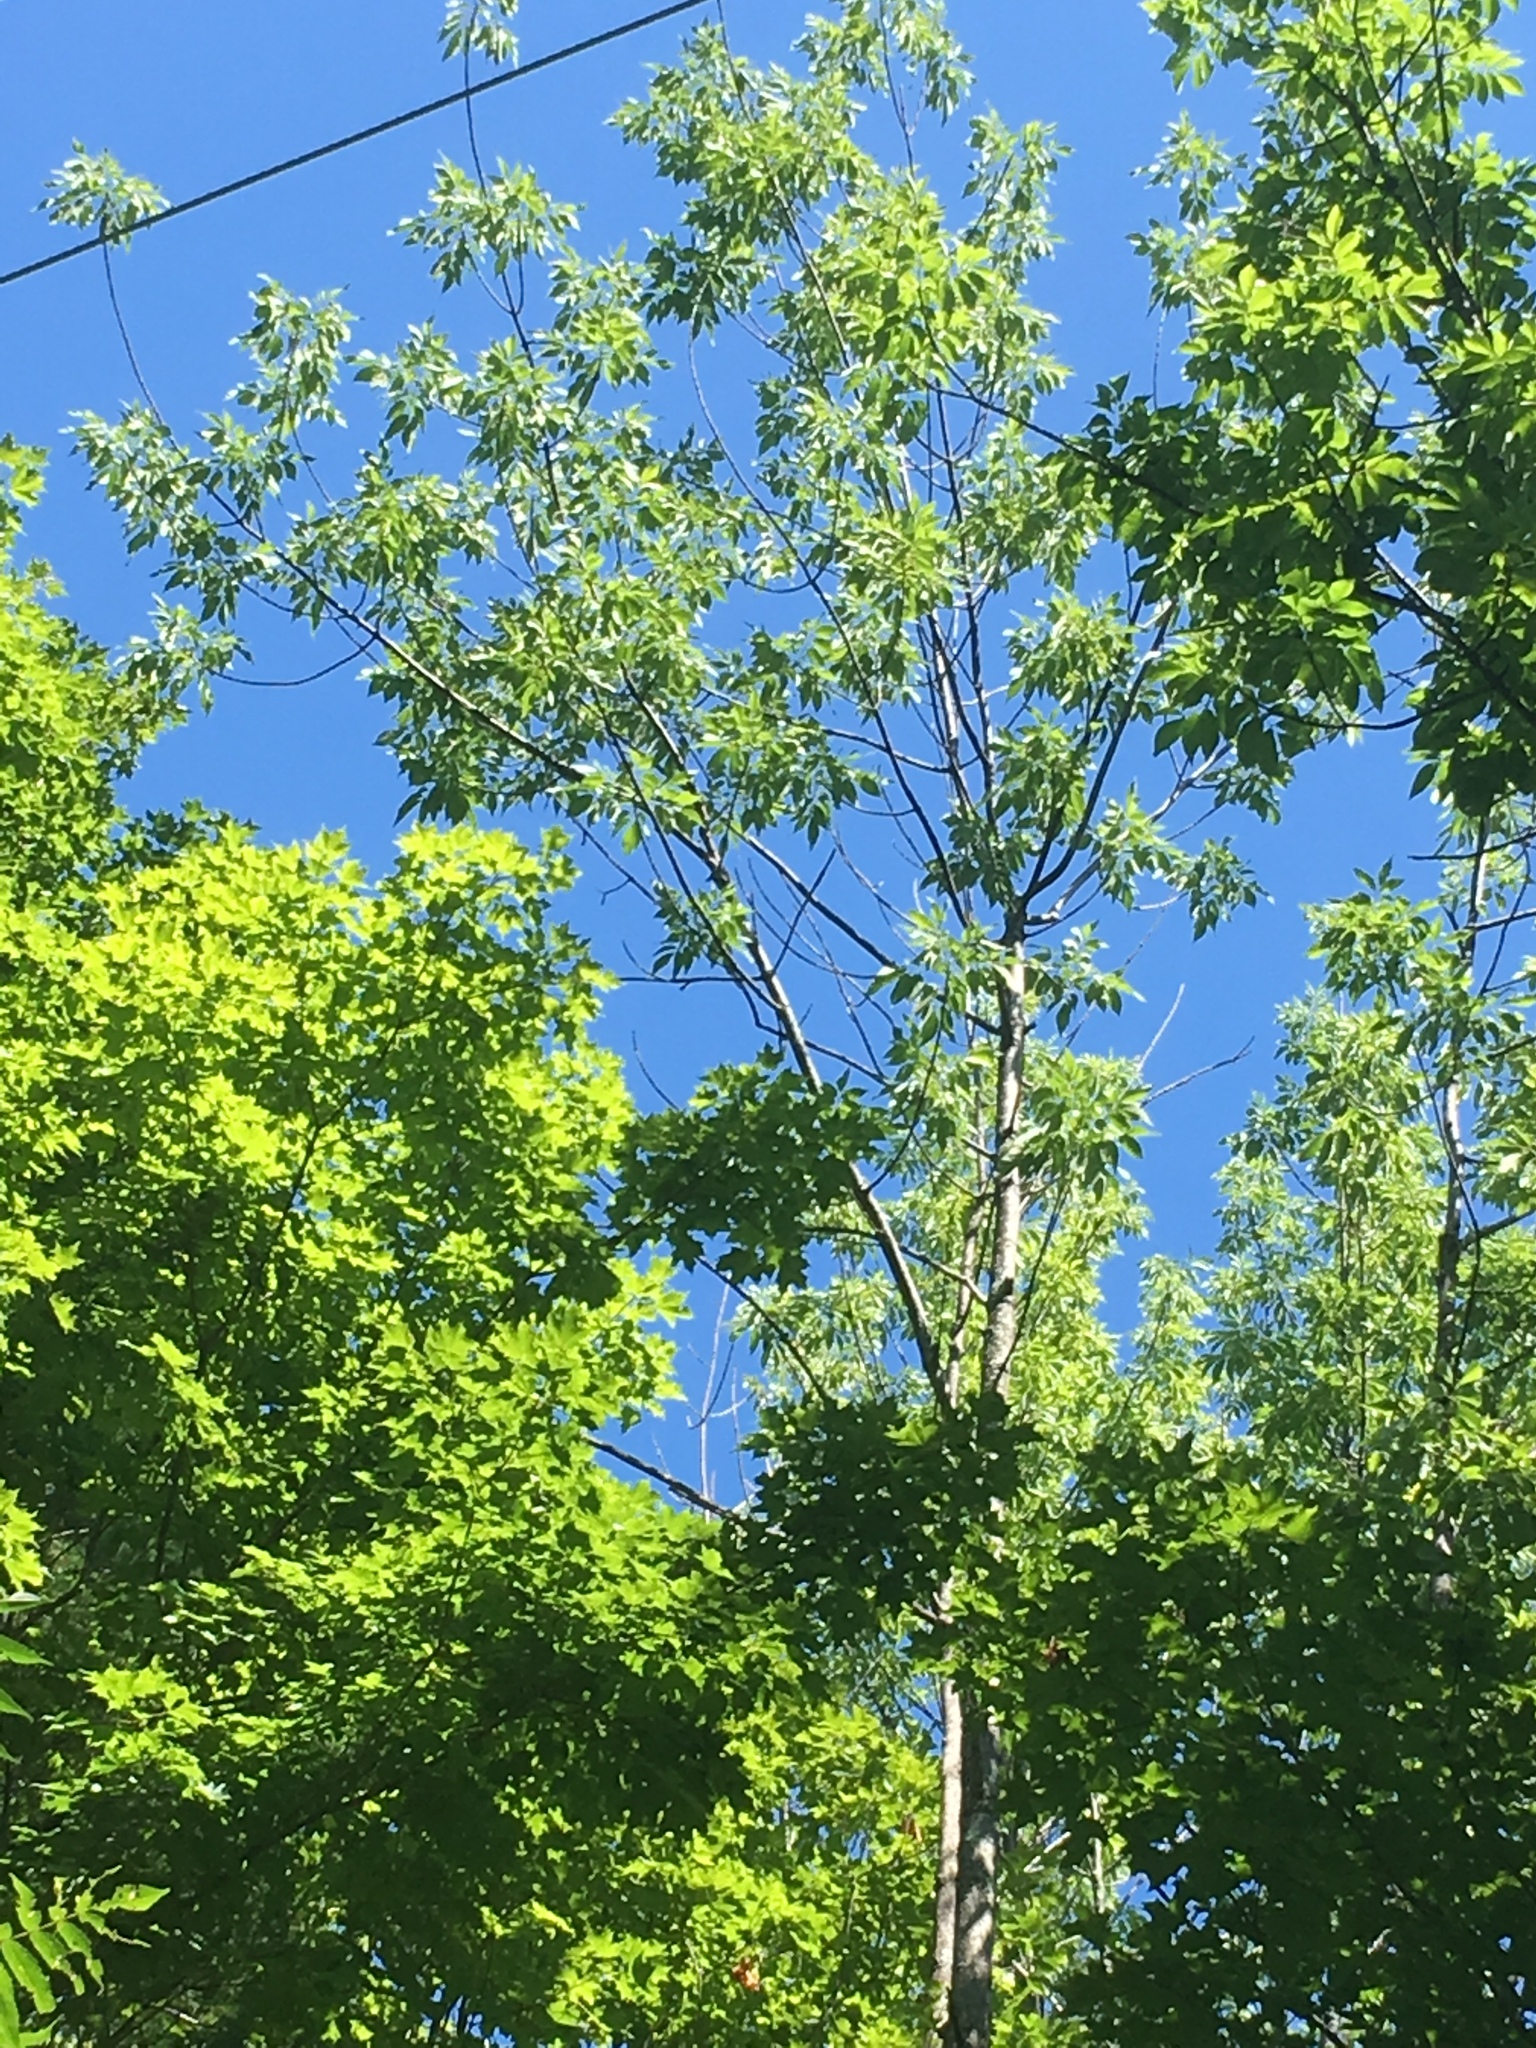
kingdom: Plantae
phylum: Tracheophyta
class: Magnoliopsida
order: Lamiales
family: Oleaceae
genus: Fraxinus
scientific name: Fraxinus americana
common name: White ash
